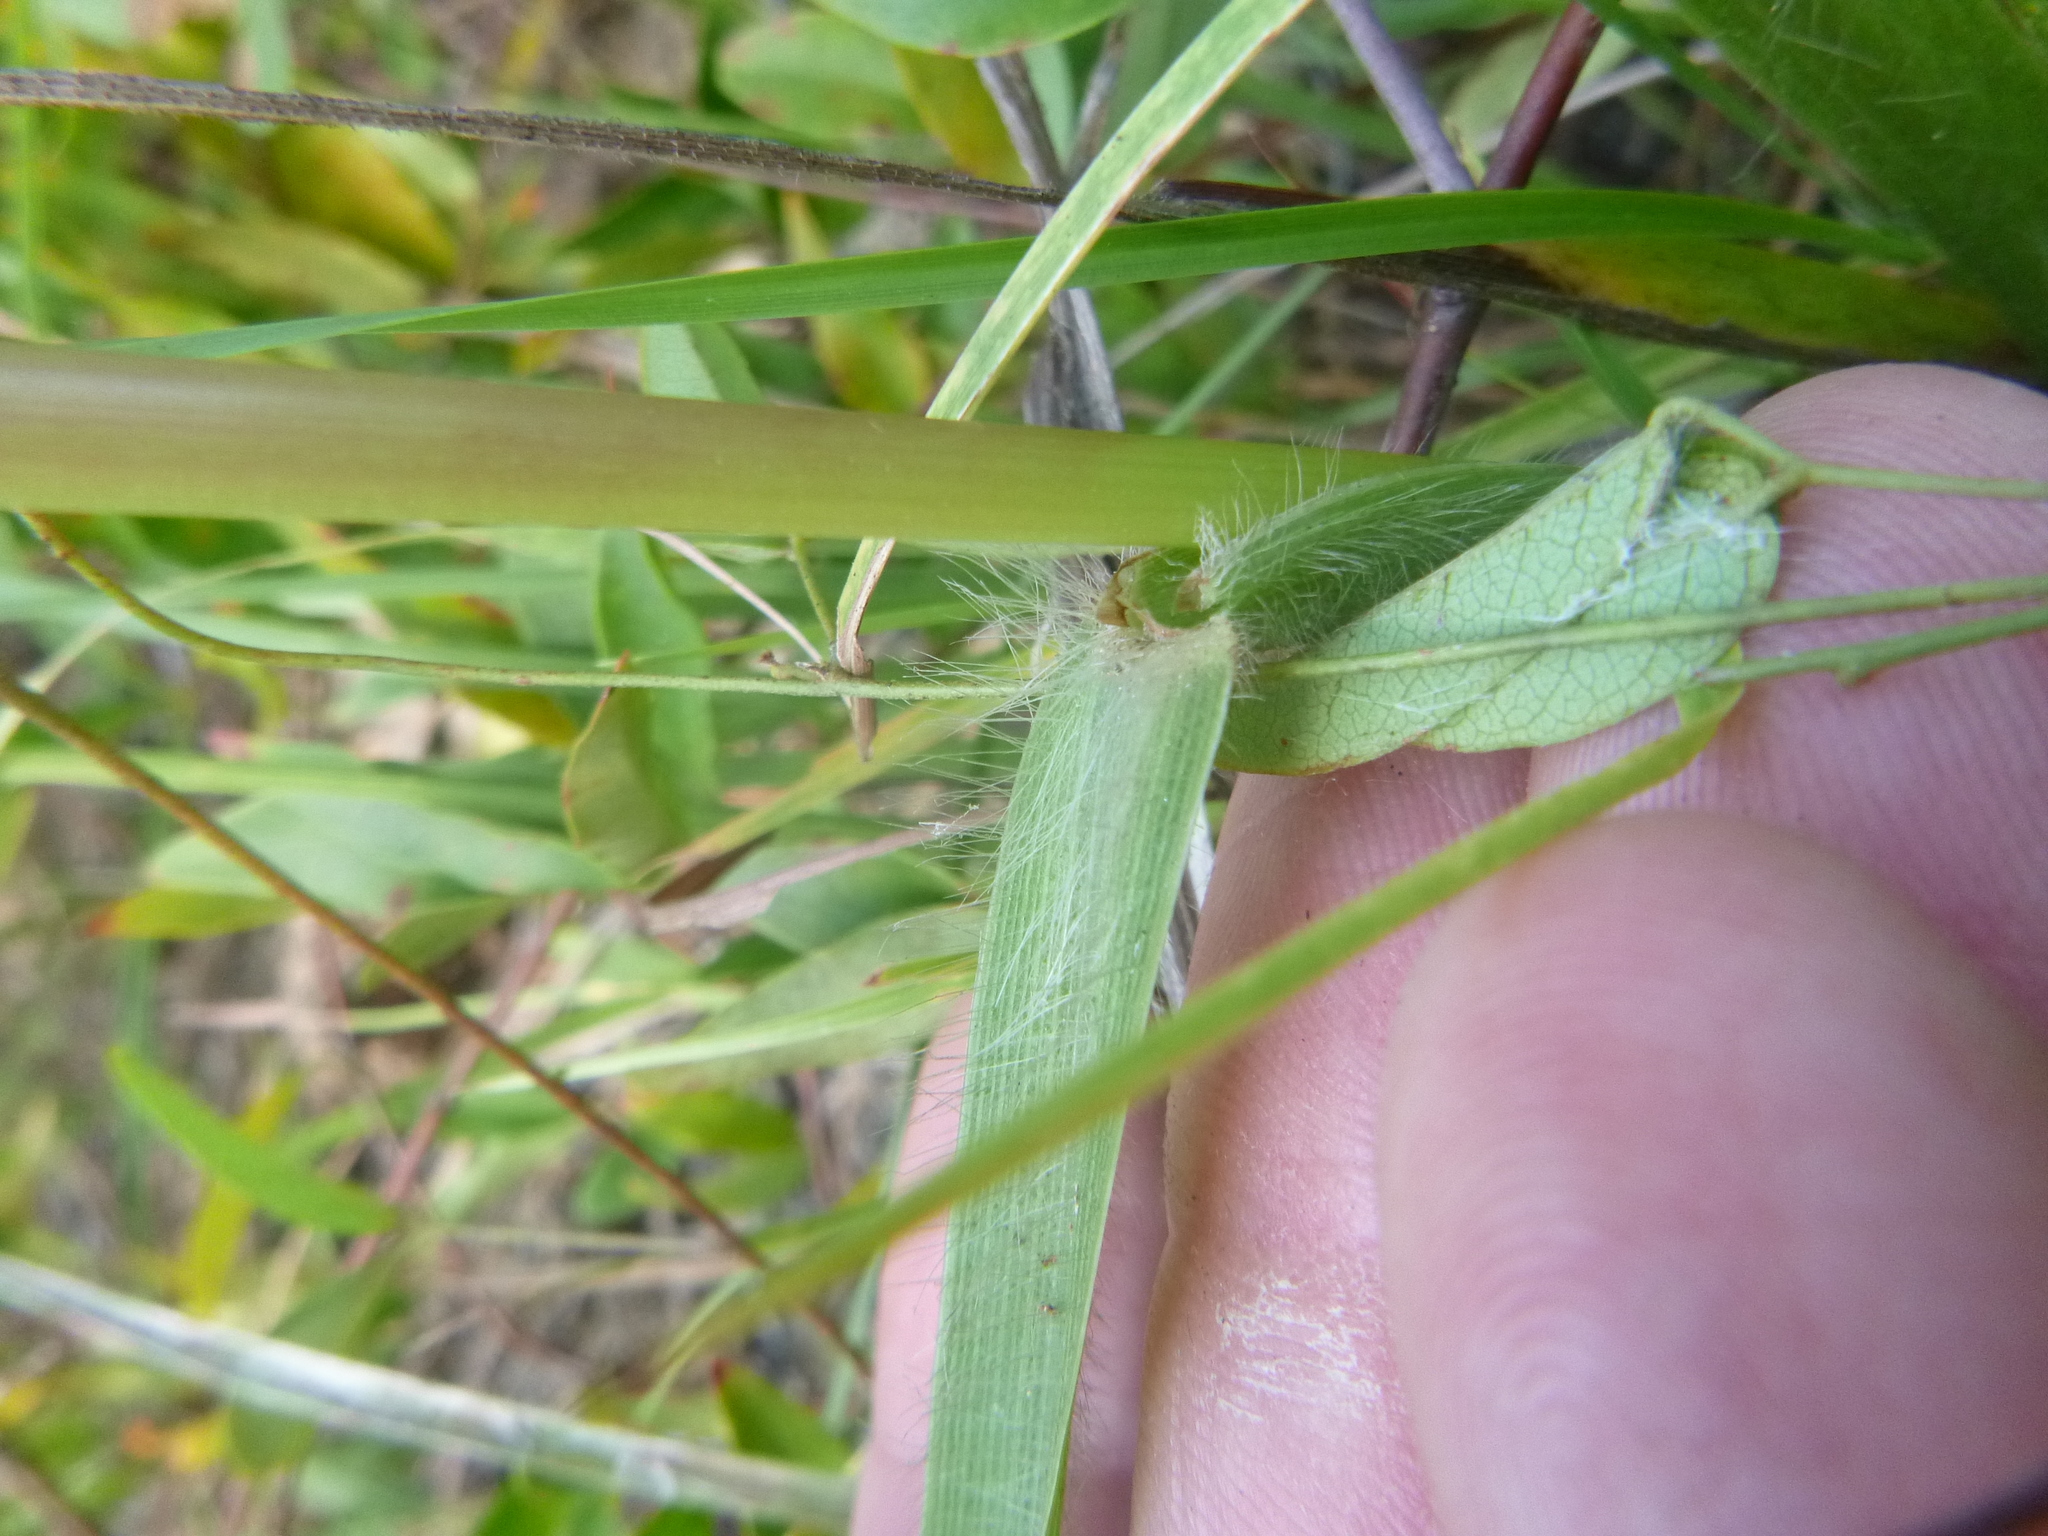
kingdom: Plantae
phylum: Tracheophyta
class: Liliopsida
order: Poales
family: Poaceae
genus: Paspalum
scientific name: Paspalum floridanum
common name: Florida paspalum
